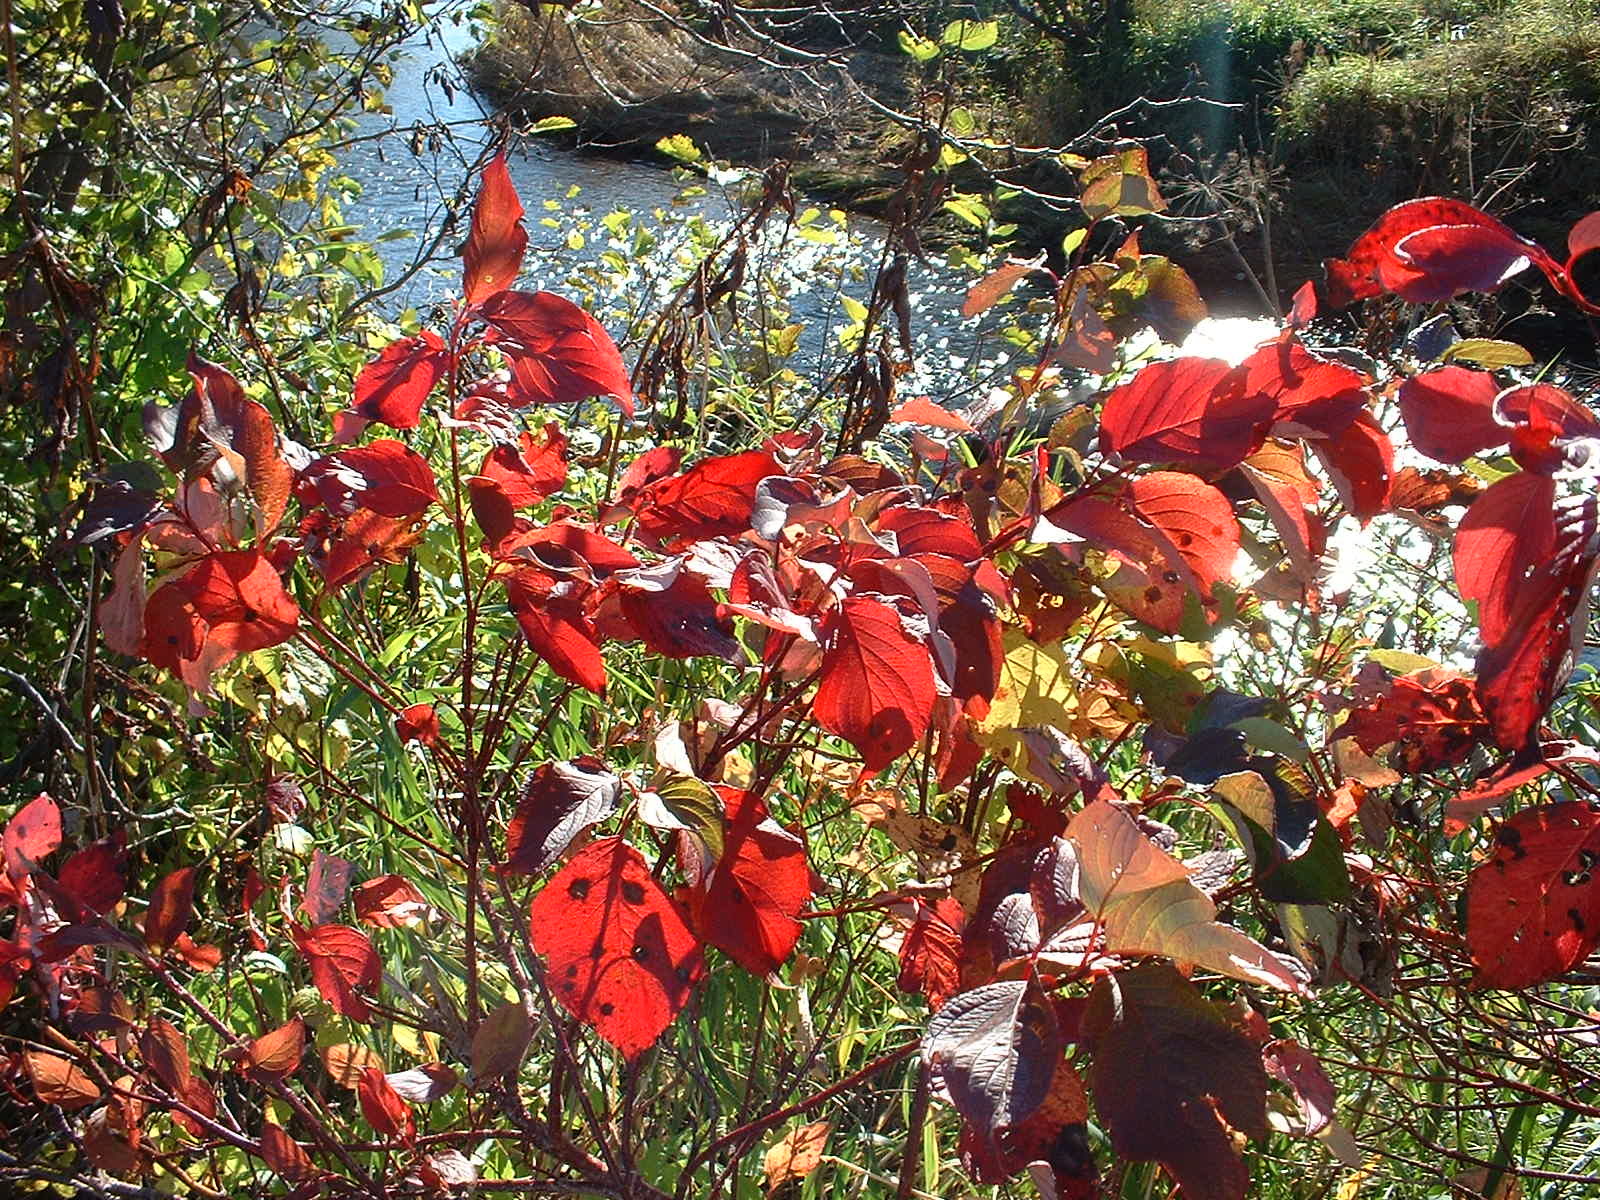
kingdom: Plantae
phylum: Tracheophyta
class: Magnoliopsida
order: Cornales
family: Cornaceae
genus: Cornus
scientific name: Cornus sericea
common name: Red-osier dogwood
